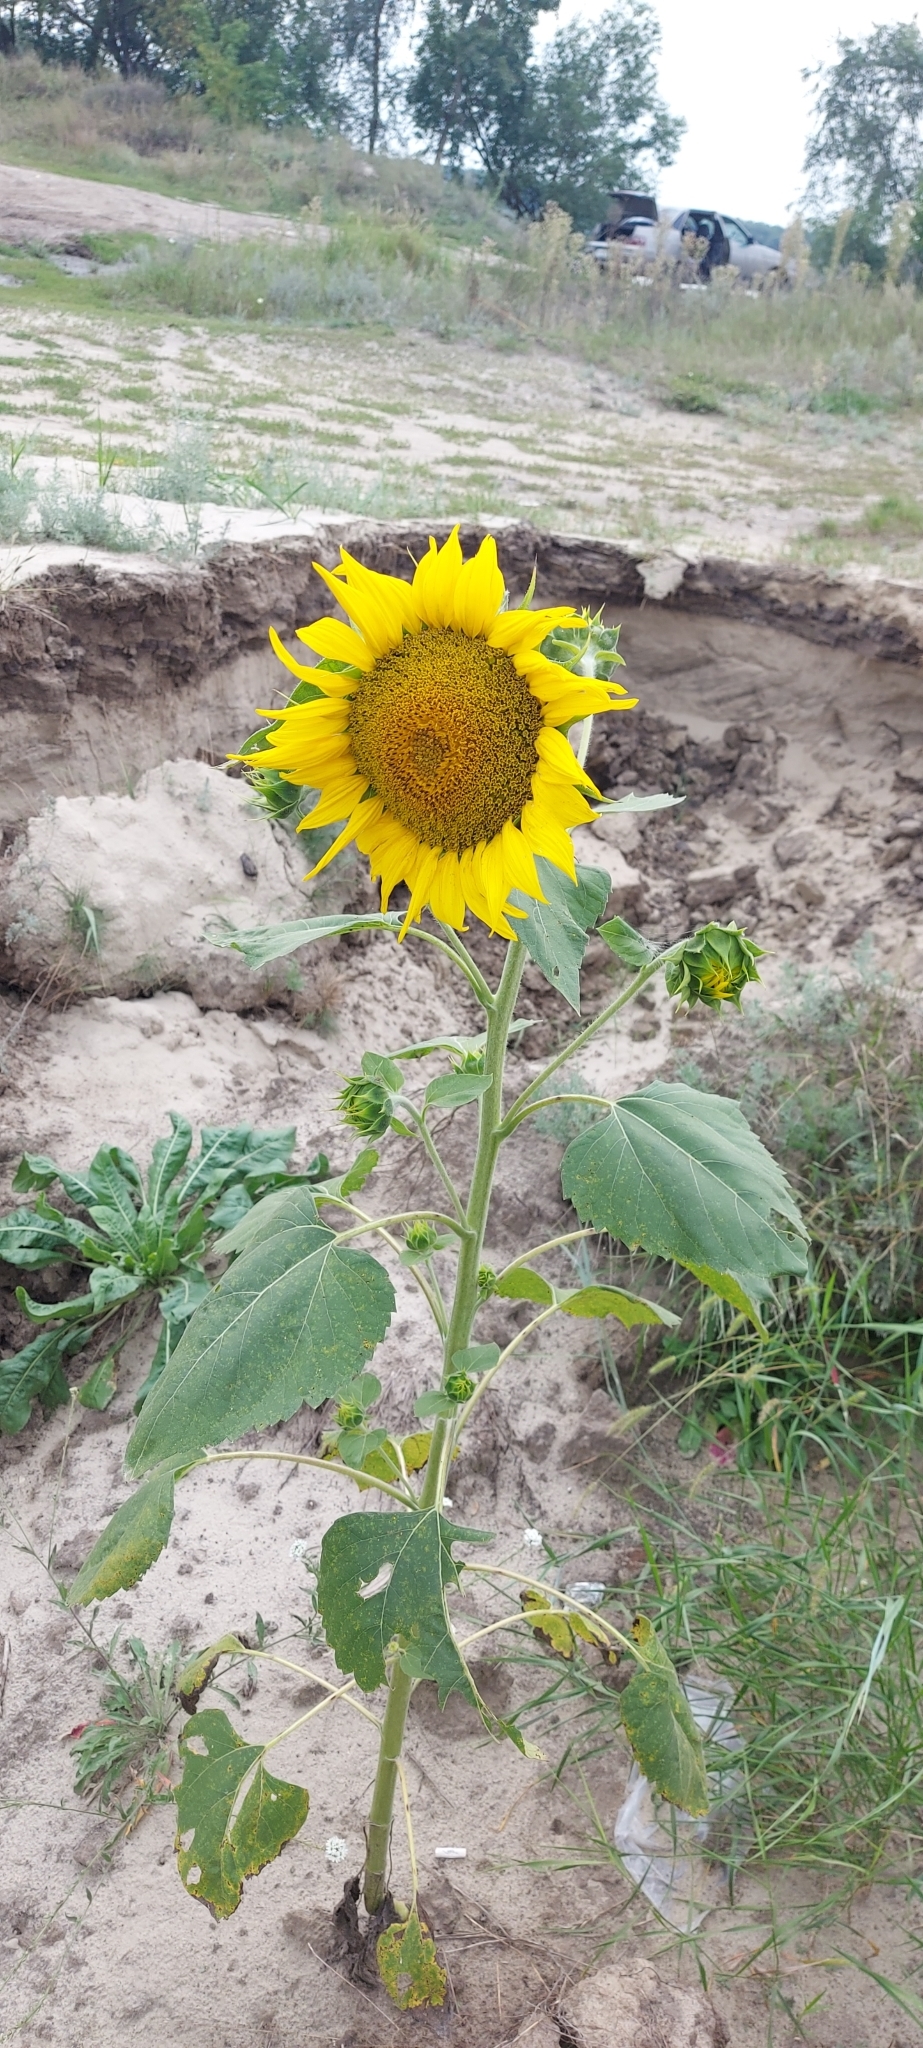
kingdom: Plantae
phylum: Tracheophyta
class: Magnoliopsida
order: Asterales
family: Asteraceae
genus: Helianthus
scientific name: Helianthus annuus
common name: Sunflower
